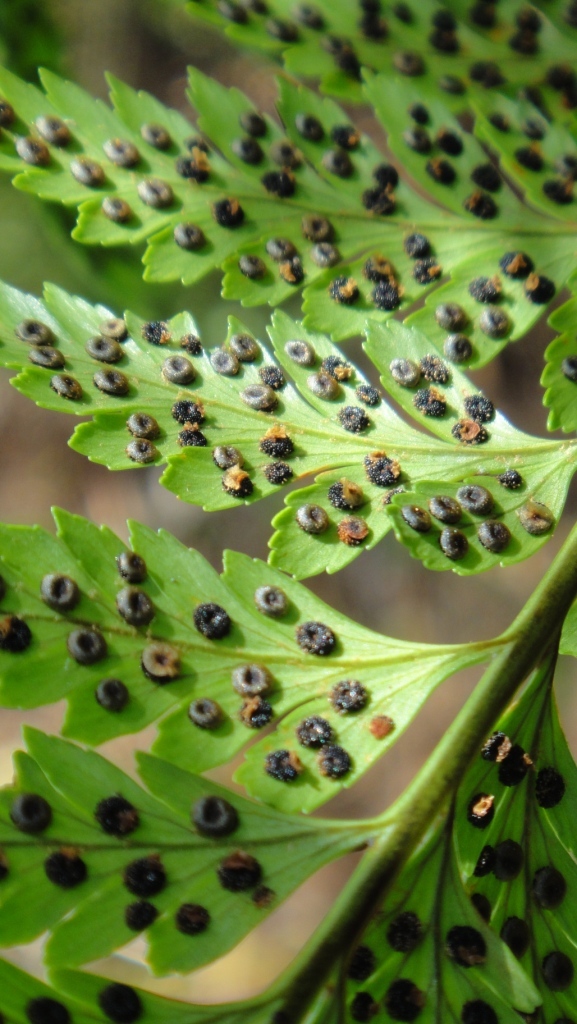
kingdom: Plantae
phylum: Tracheophyta
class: Polypodiopsida
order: Polypodiales
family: Dryopteridaceae
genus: Rumohra
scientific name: Rumohra adiantiformis
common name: Leather fern
